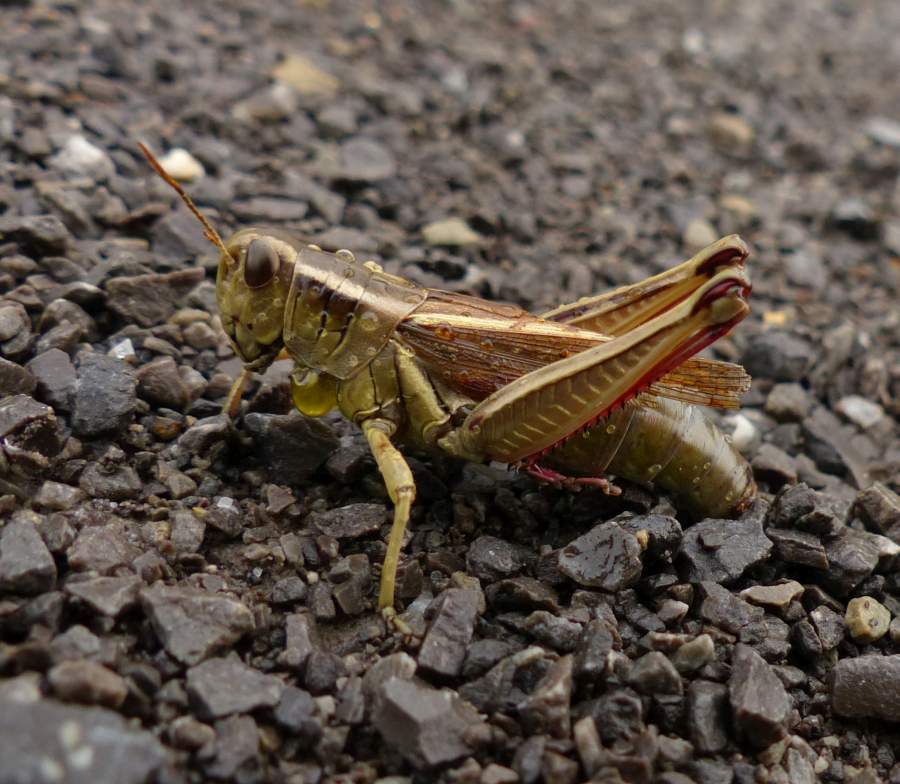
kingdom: Animalia
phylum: Arthropoda
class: Insecta
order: Orthoptera
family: Acrididae
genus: Melanoplus
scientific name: Melanoplus bivittatus
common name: Two-striped grasshopper
